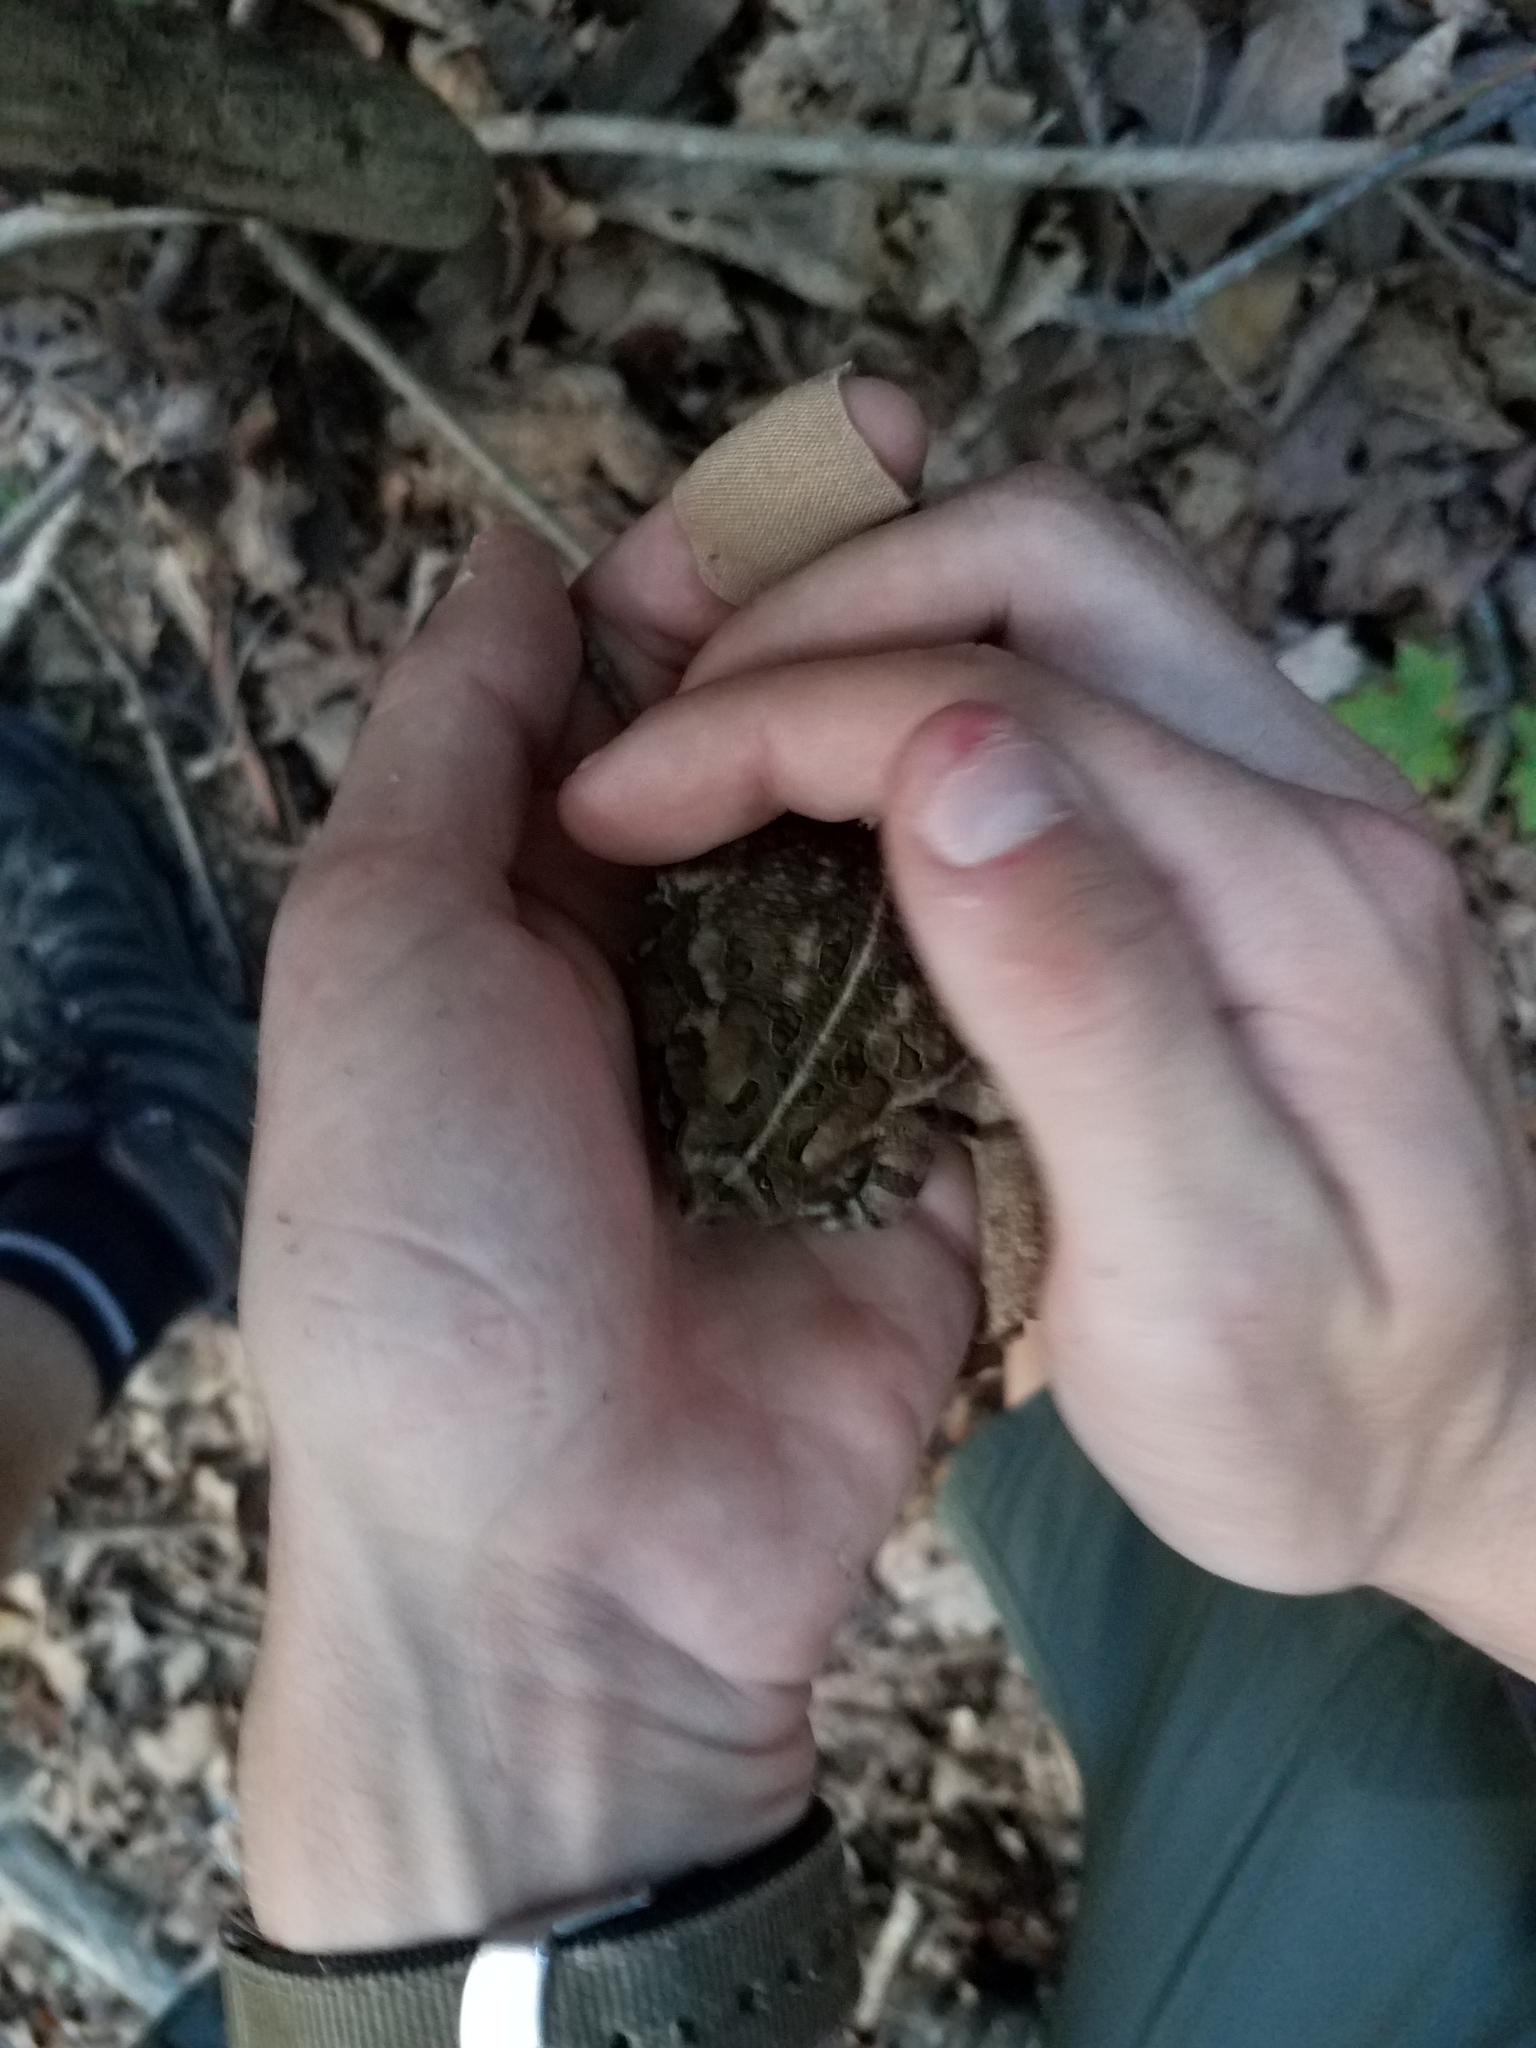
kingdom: Animalia
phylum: Chordata
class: Amphibia
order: Anura
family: Bufonidae
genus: Anaxyrus
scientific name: Anaxyrus fowleri
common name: Fowler's toad
